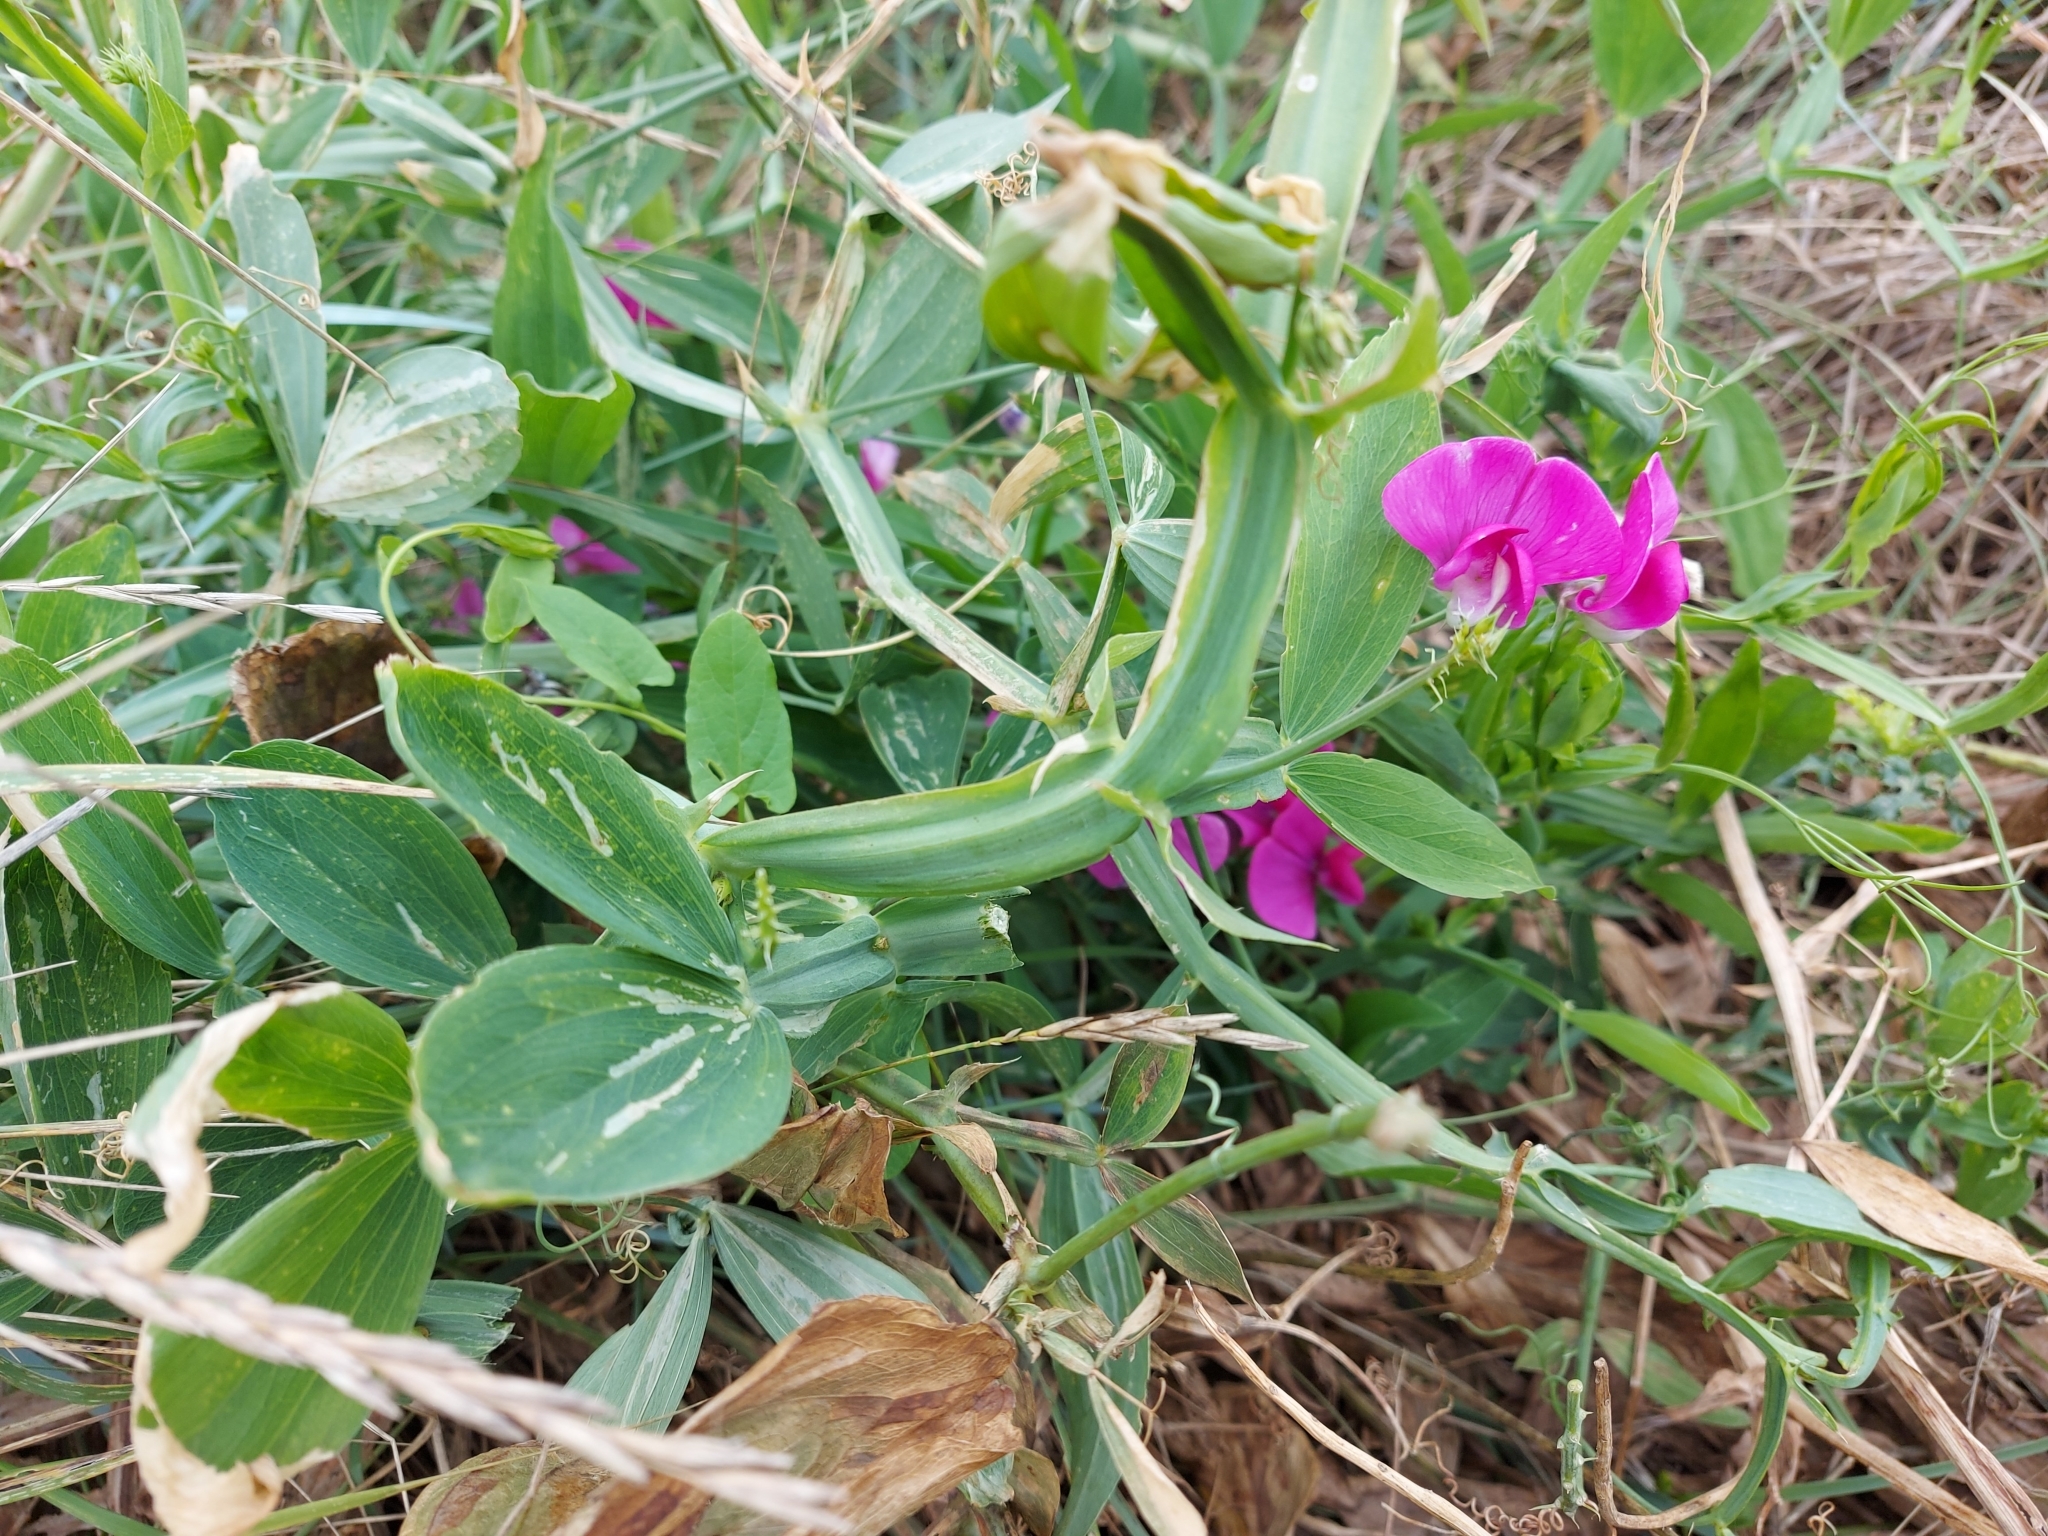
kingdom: Plantae
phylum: Tracheophyta
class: Magnoliopsida
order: Fabales
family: Fabaceae
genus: Lathyrus
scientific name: Lathyrus latifolius
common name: Perennial pea
